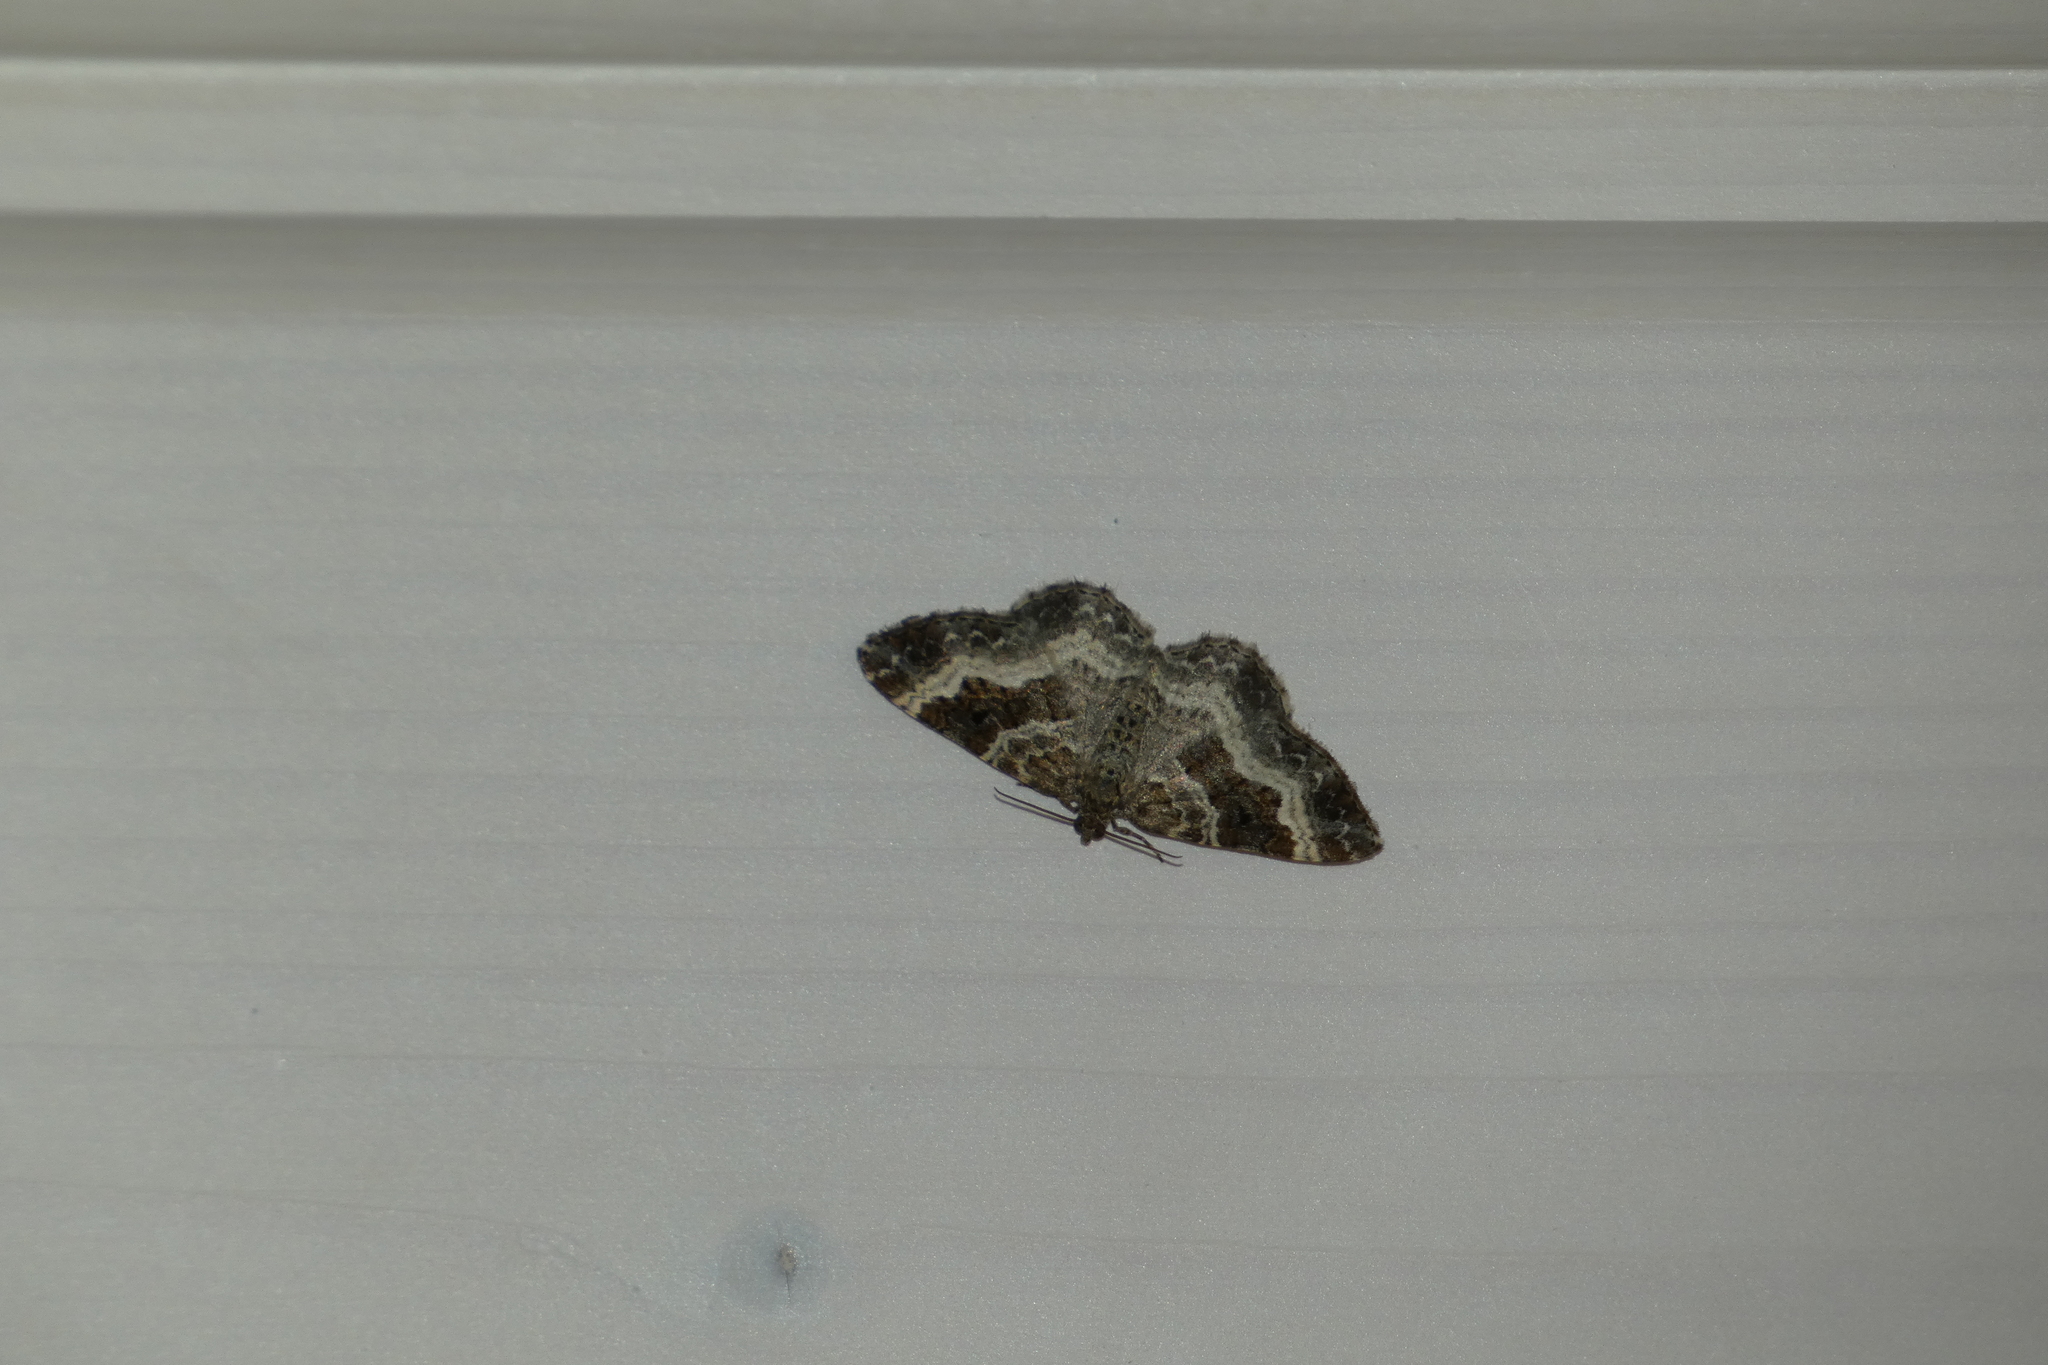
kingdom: Animalia
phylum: Arthropoda
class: Insecta
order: Lepidoptera
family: Geometridae
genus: Epirrhoe
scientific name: Epirrhoe alternata
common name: Common carpet
